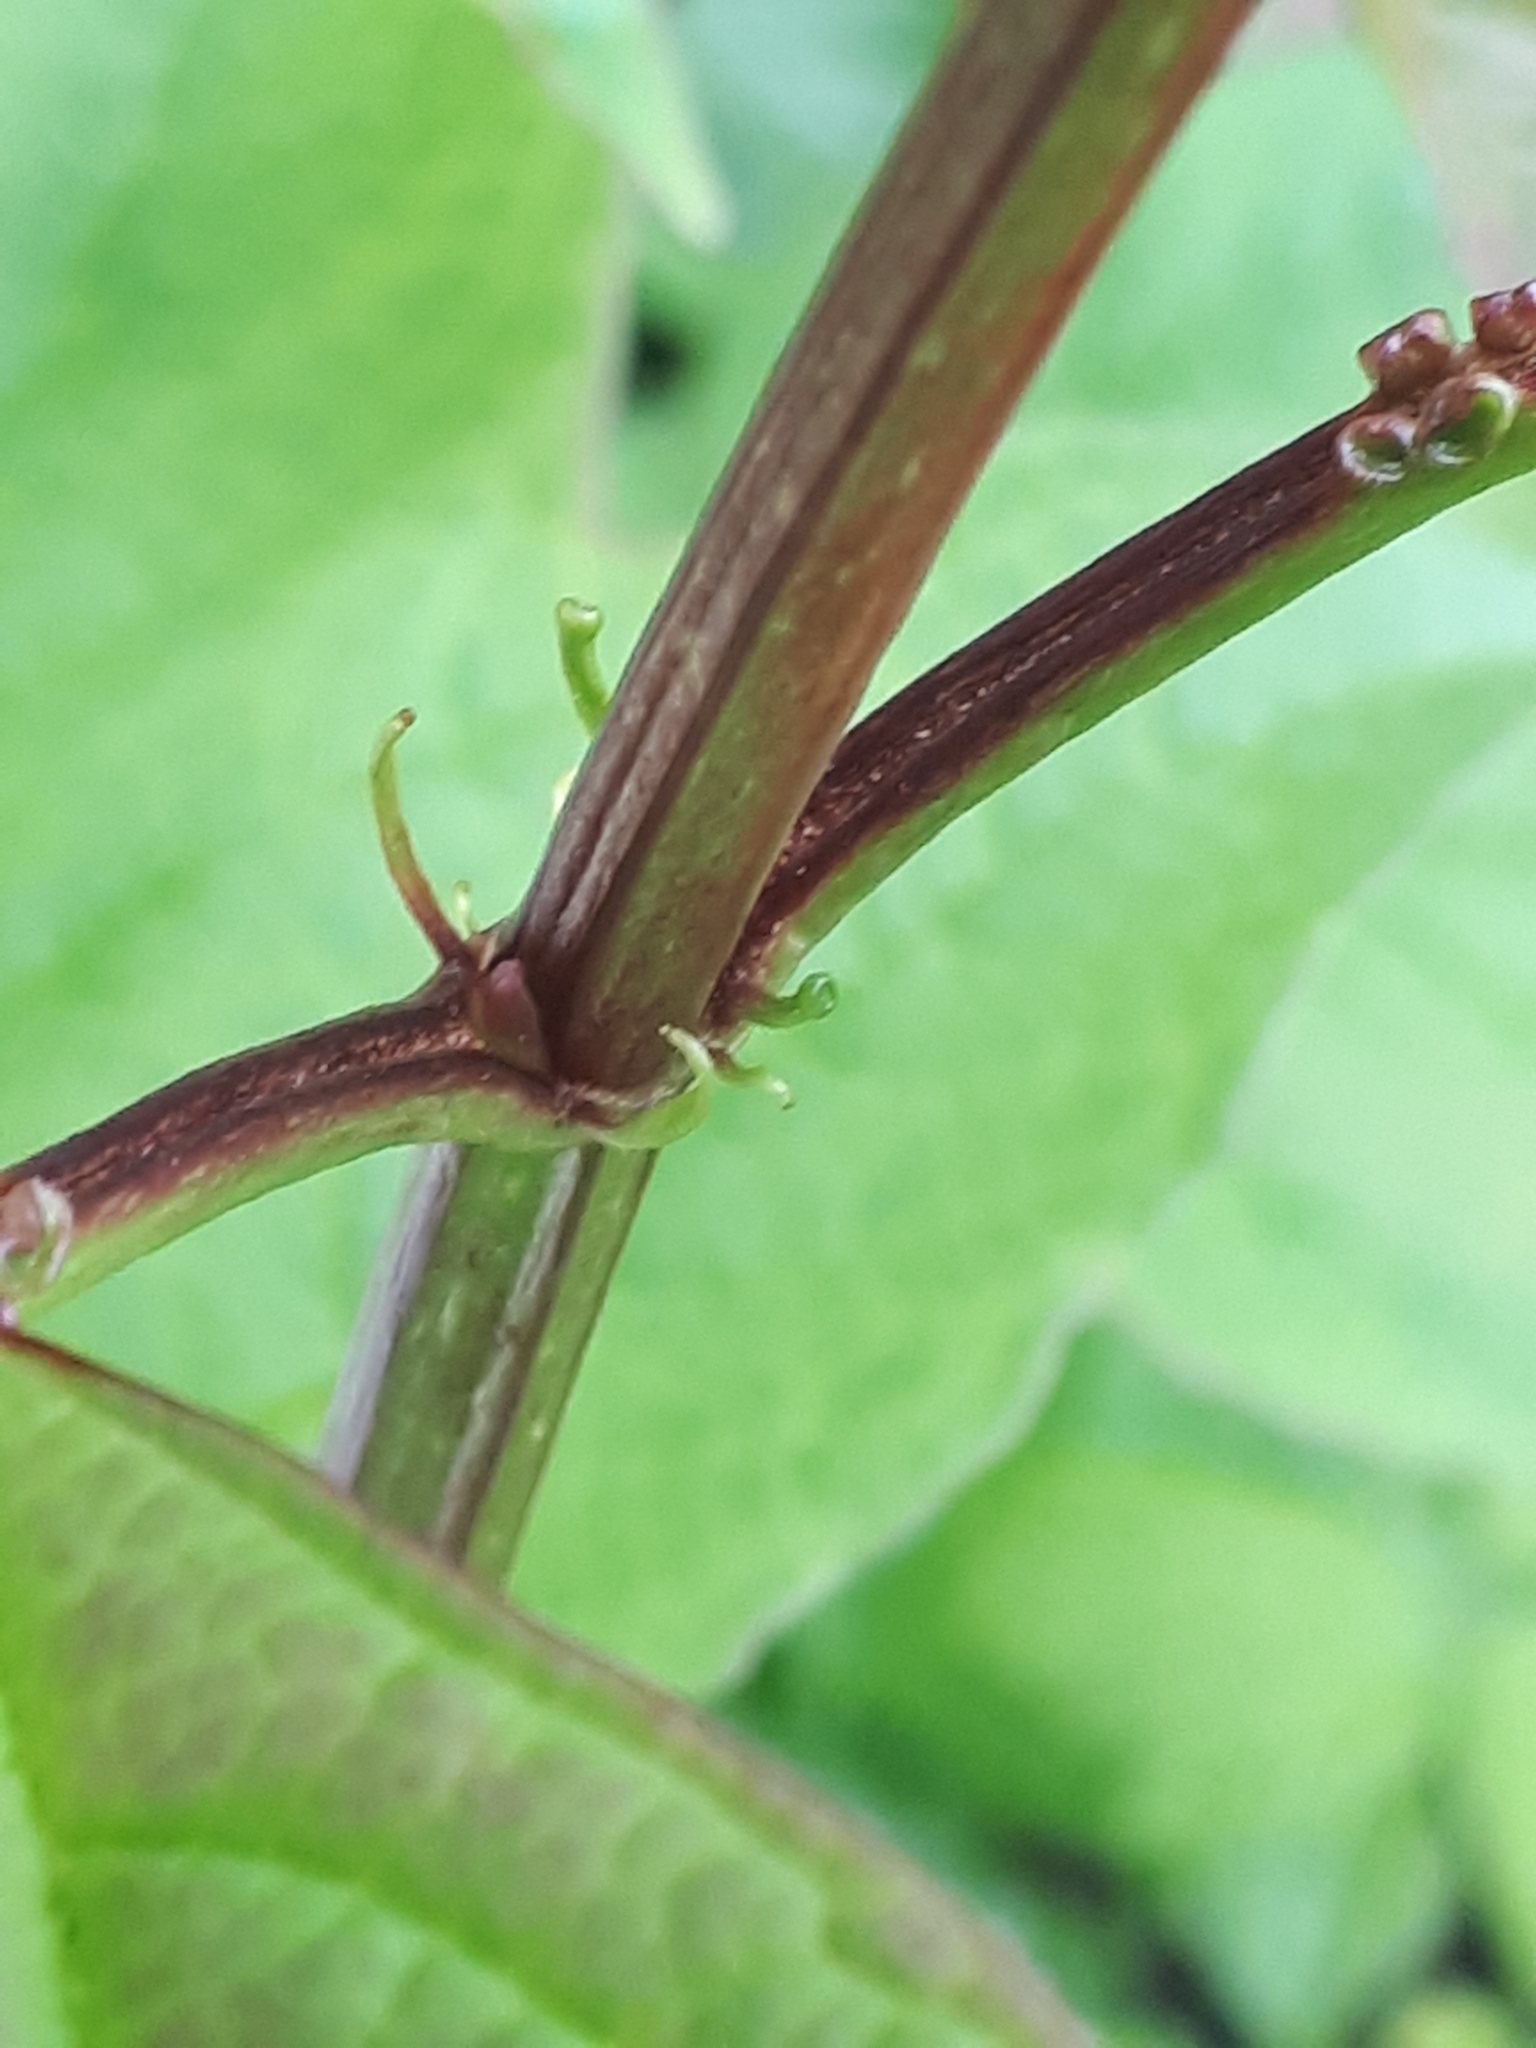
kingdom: Plantae
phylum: Tracheophyta
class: Magnoliopsida
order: Dipsacales
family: Viburnaceae
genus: Viburnum
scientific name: Viburnum opulus
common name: Guelder-rose
